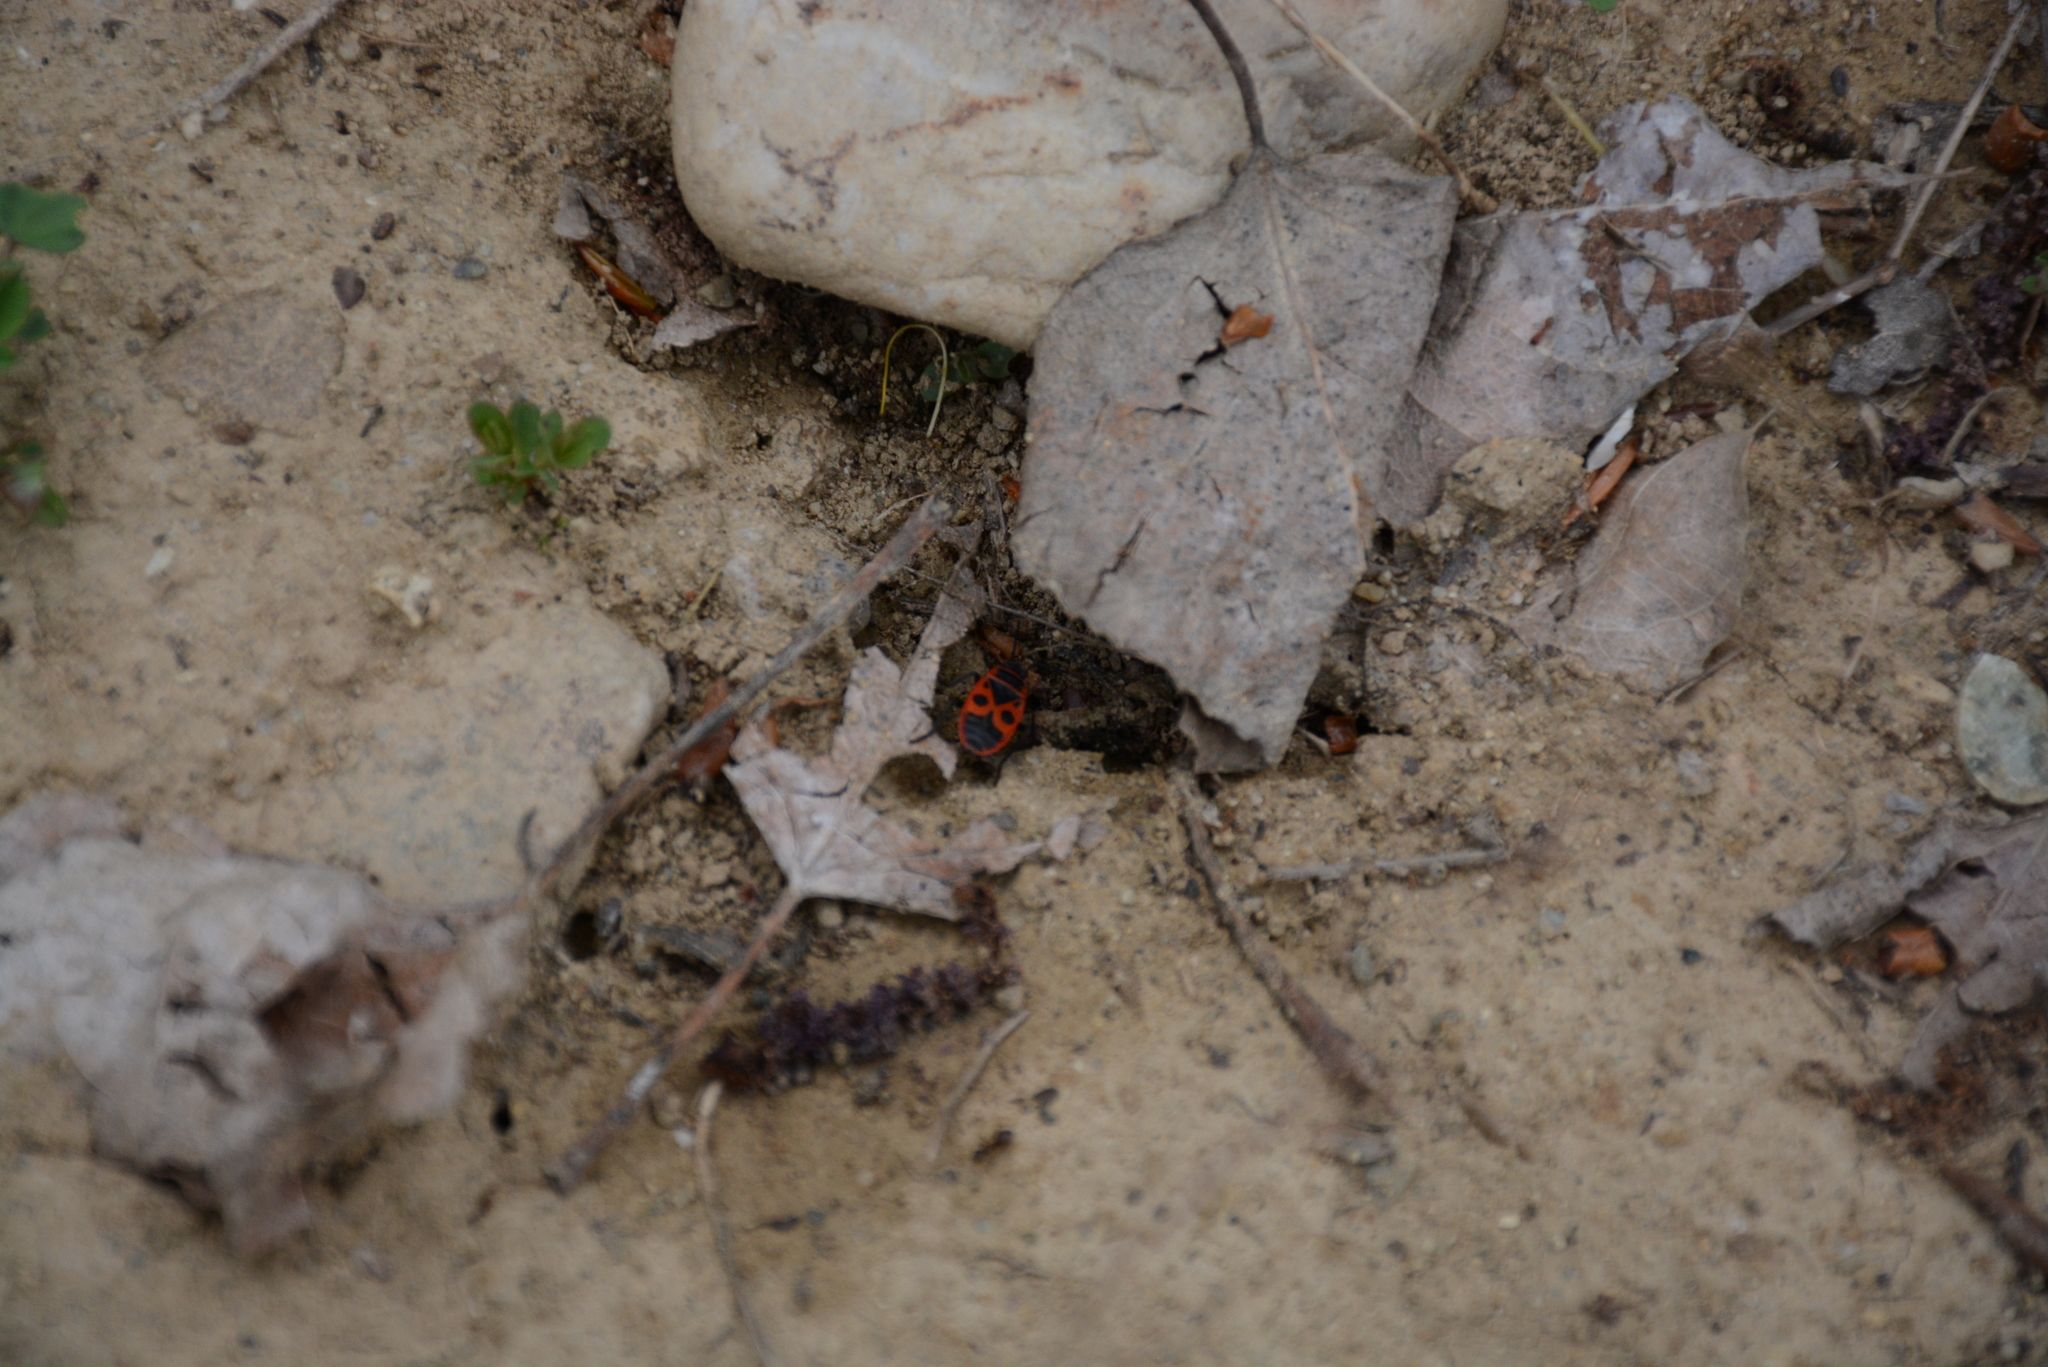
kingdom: Animalia
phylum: Arthropoda
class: Insecta
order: Hemiptera
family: Pyrrhocoridae
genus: Pyrrhocoris
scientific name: Pyrrhocoris apterus
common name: Firebug
